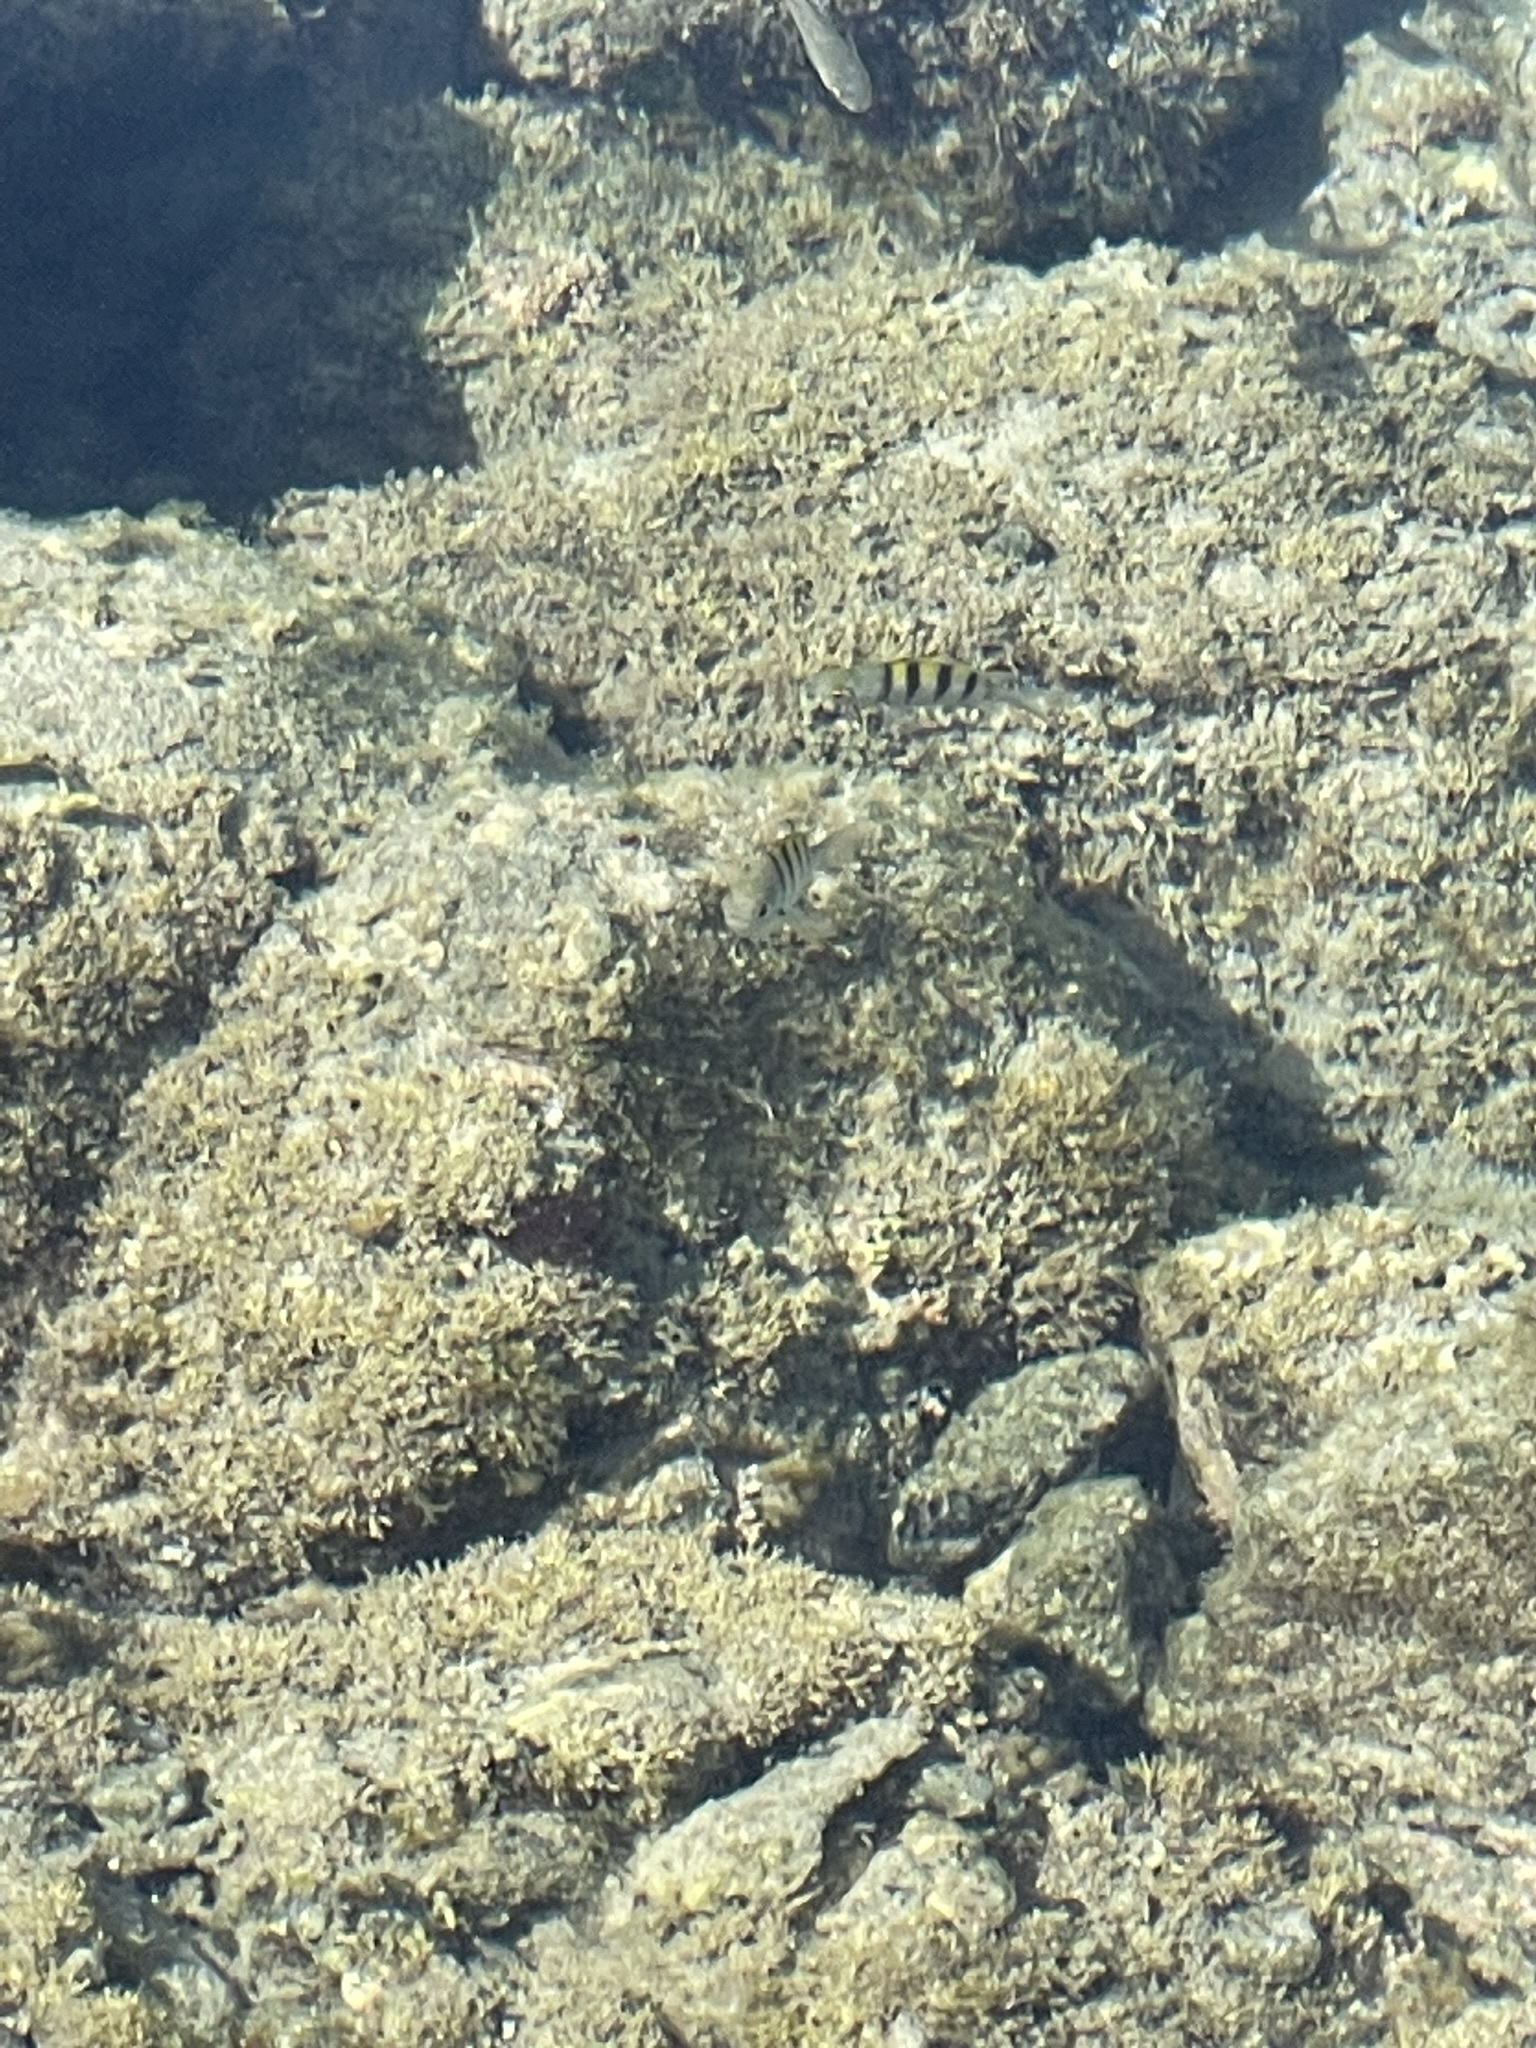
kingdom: Animalia
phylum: Chordata
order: Perciformes
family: Pomacentridae
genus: Abudefduf
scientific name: Abudefduf troschelii
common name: Panamic sergeant major
